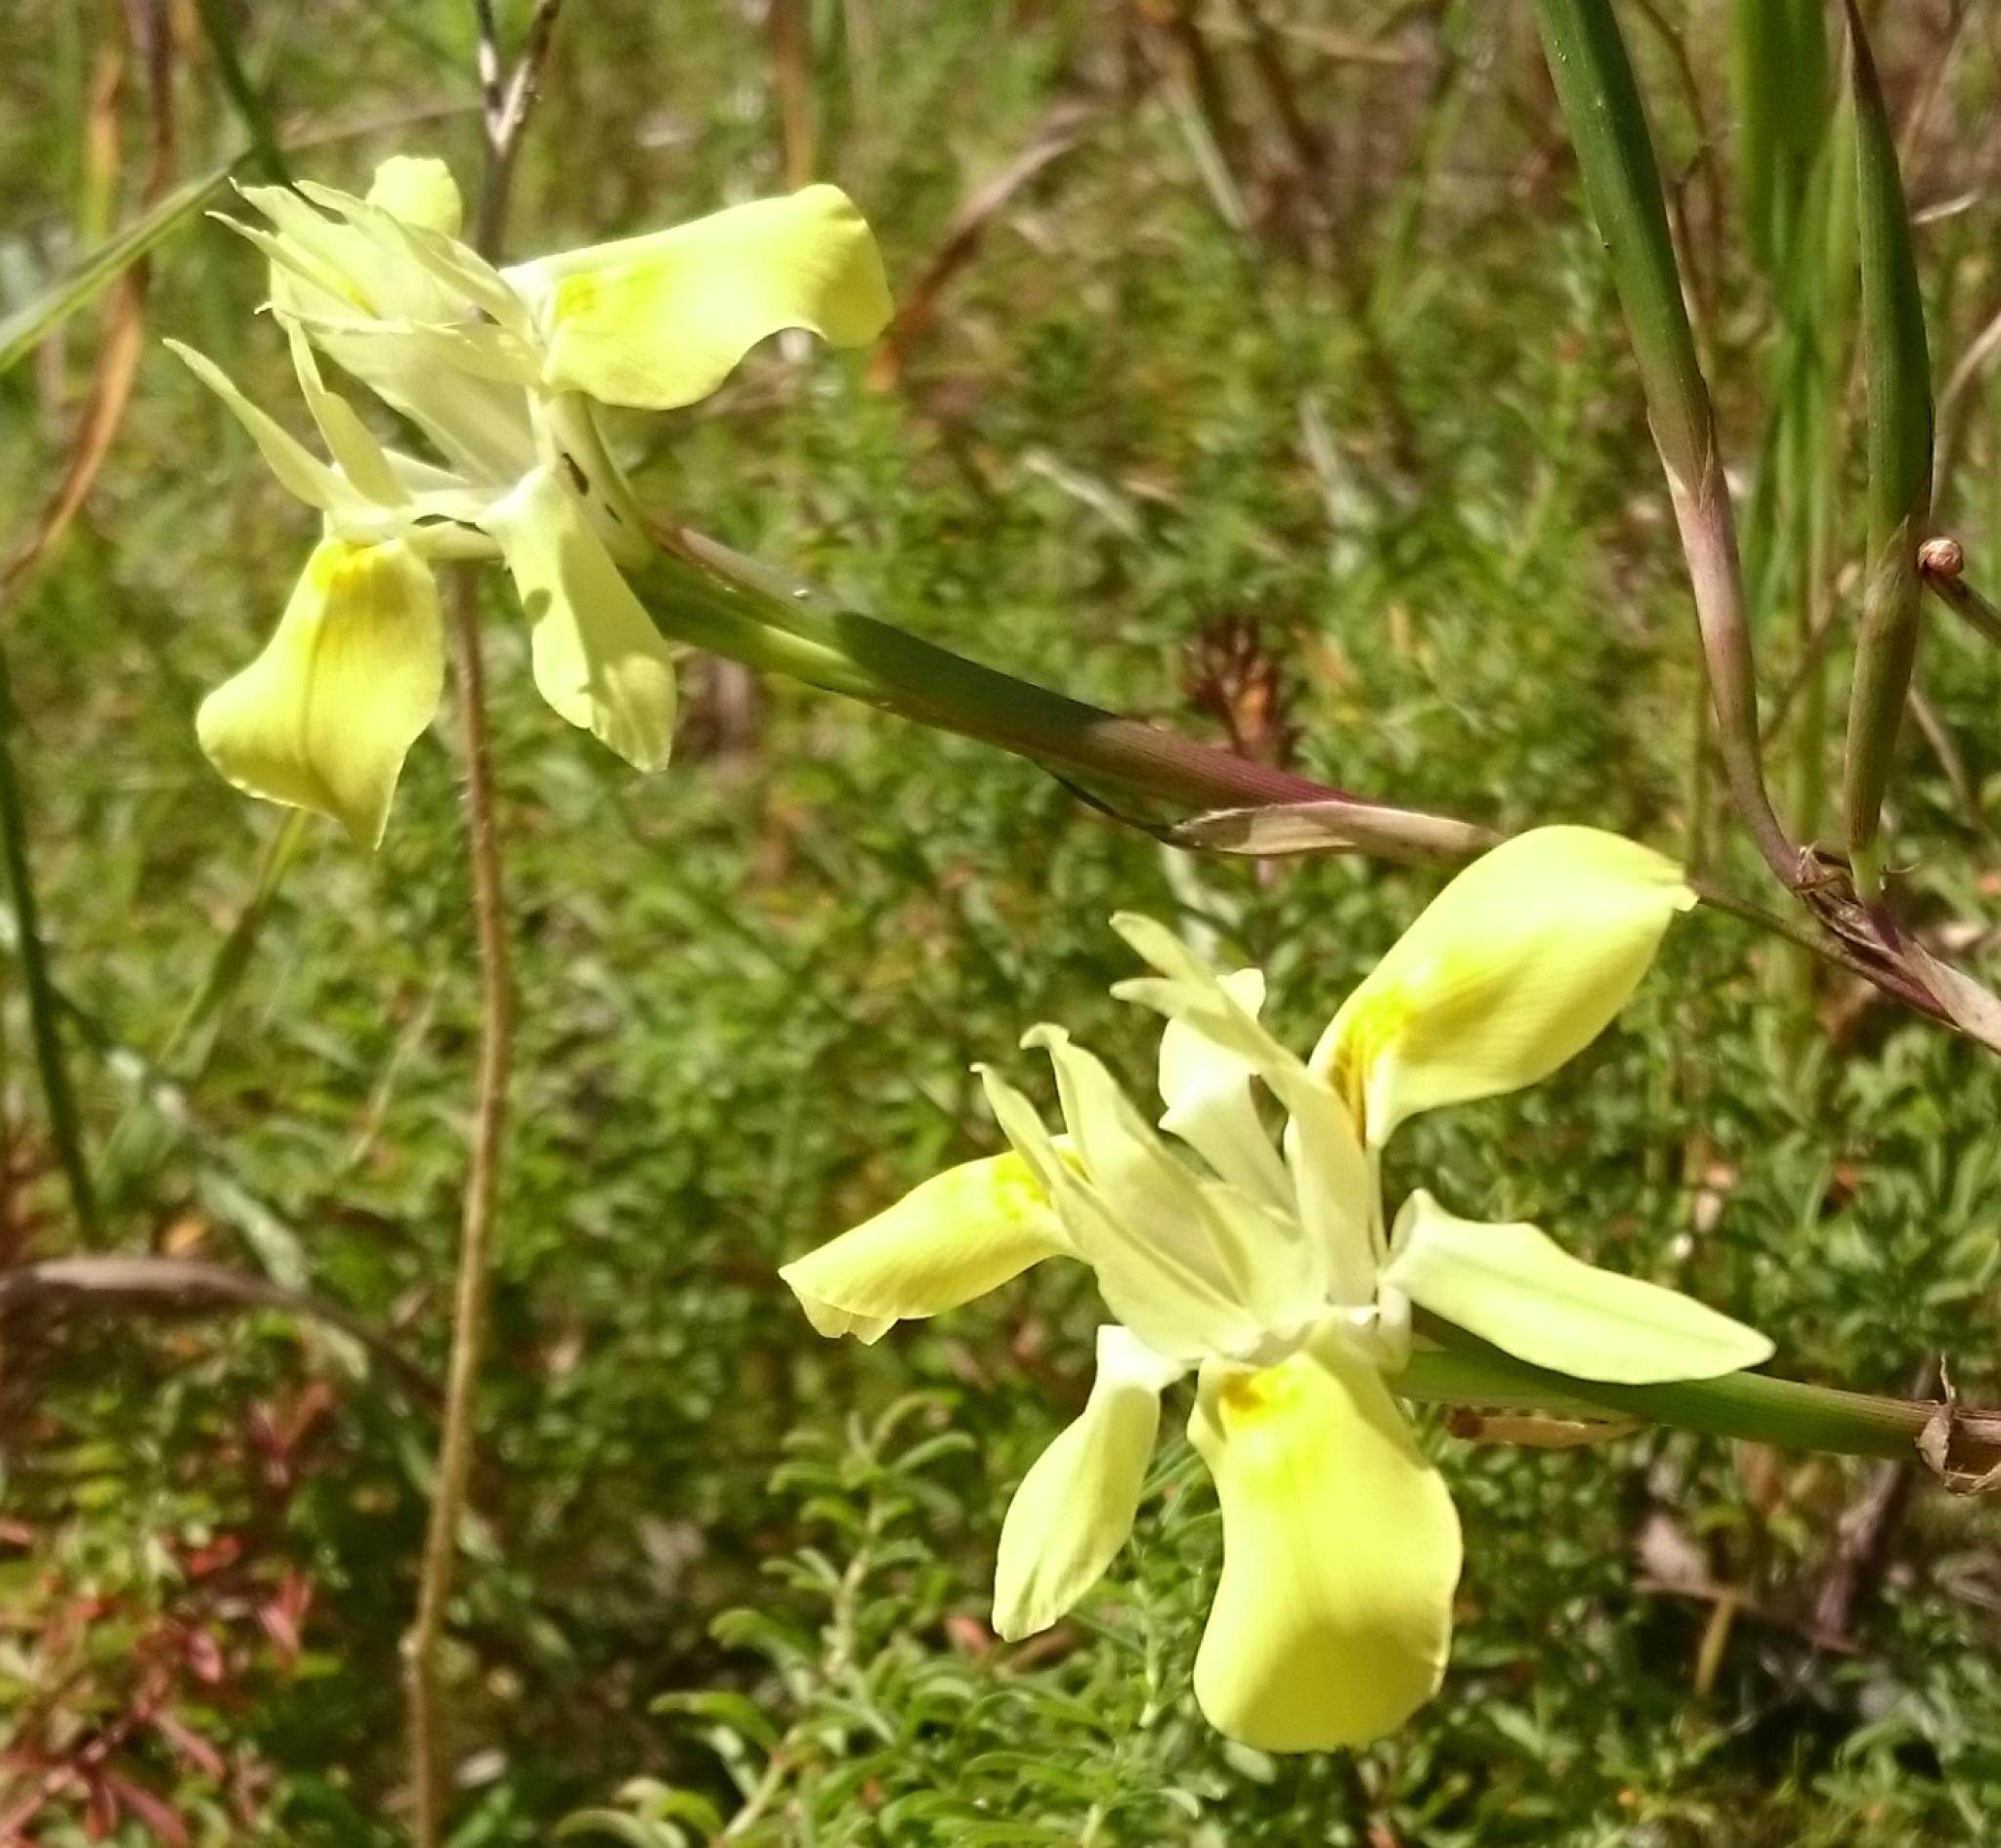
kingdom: Plantae
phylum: Tracheophyta
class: Liliopsida
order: Asparagales
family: Iridaceae
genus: Moraea
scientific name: Moraea fugax
